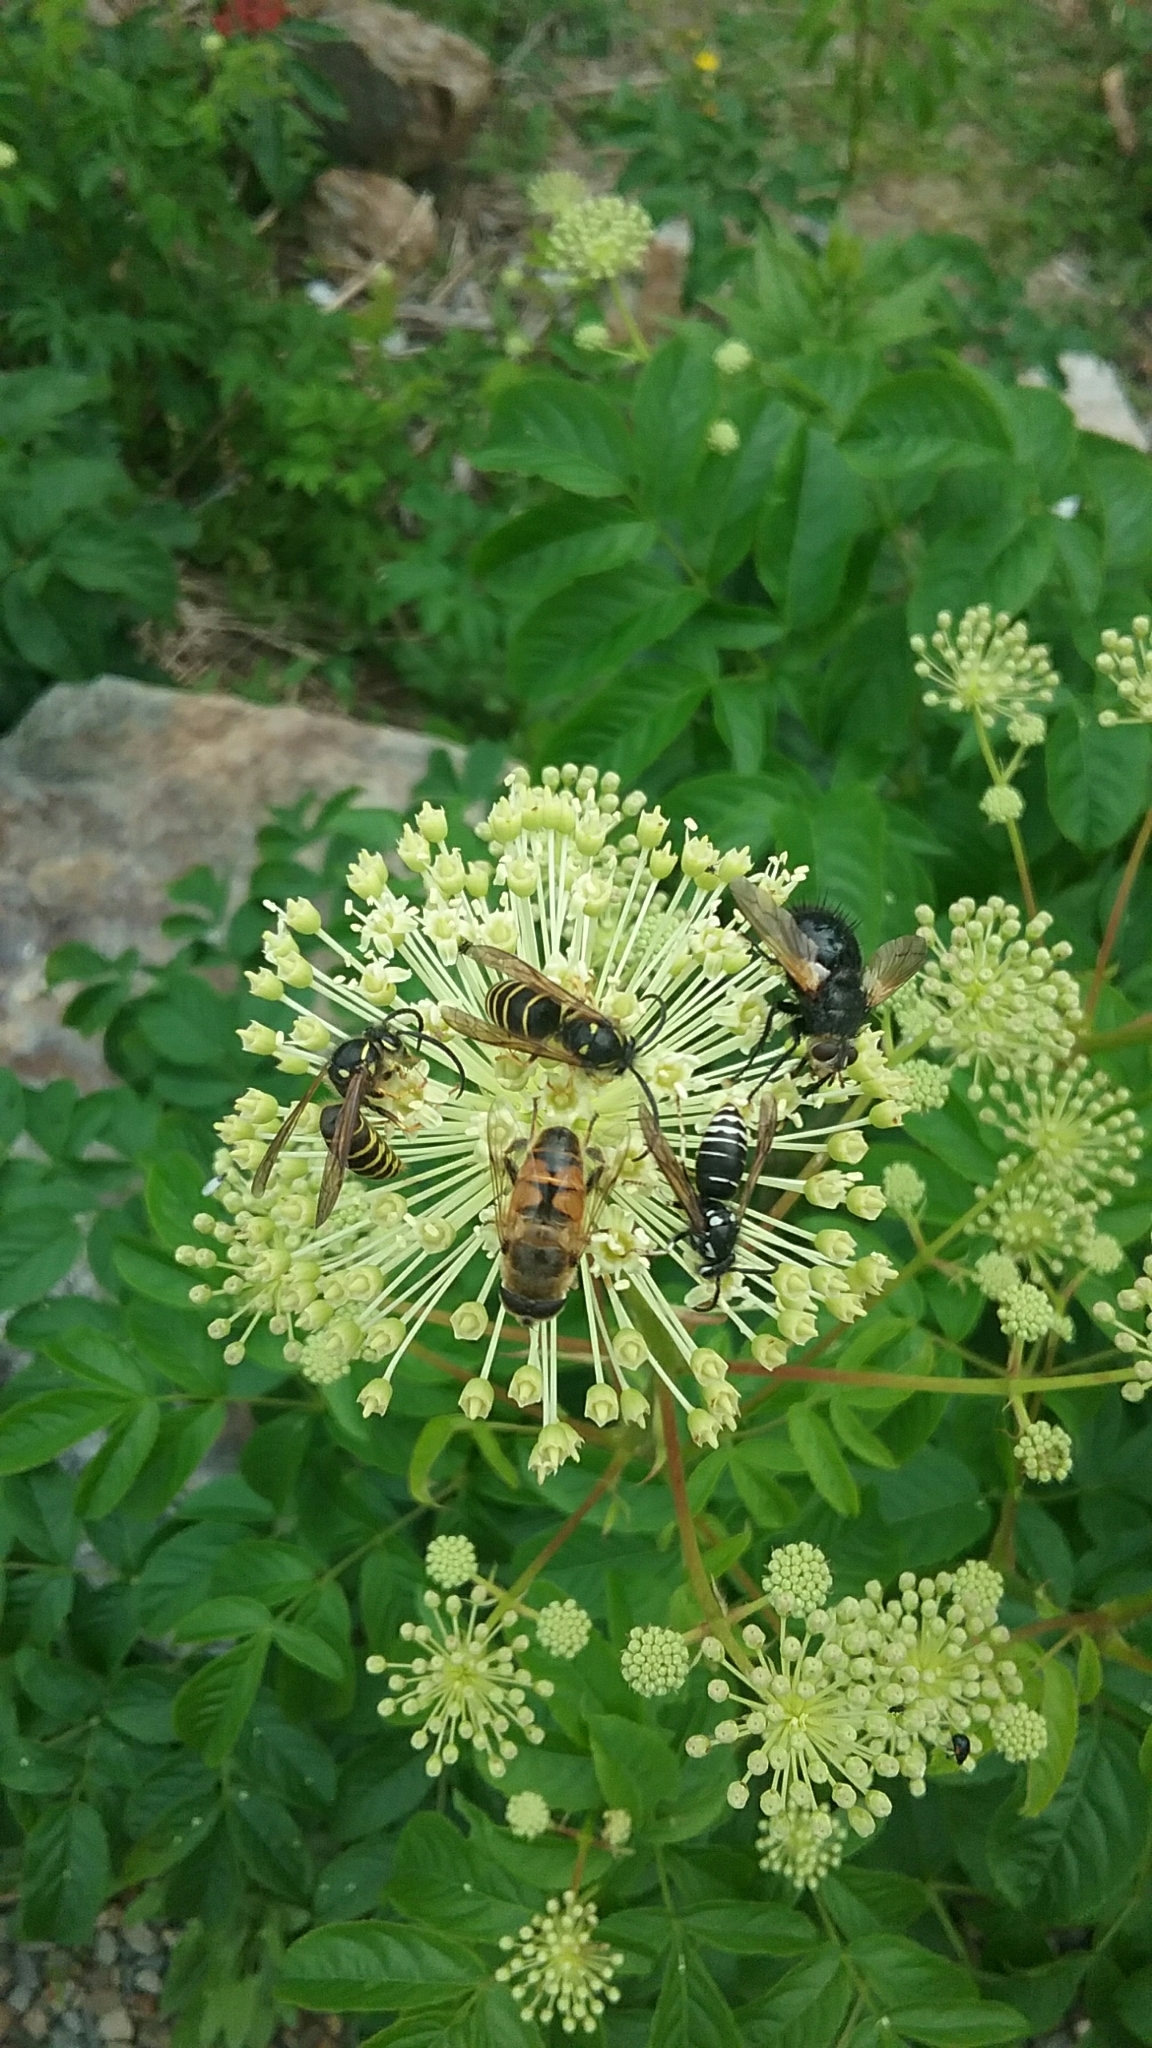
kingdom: Animalia
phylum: Arthropoda
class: Insecta
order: Diptera
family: Syrphidae
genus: Eristalis
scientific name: Eristalis tenax
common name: Drone fly
